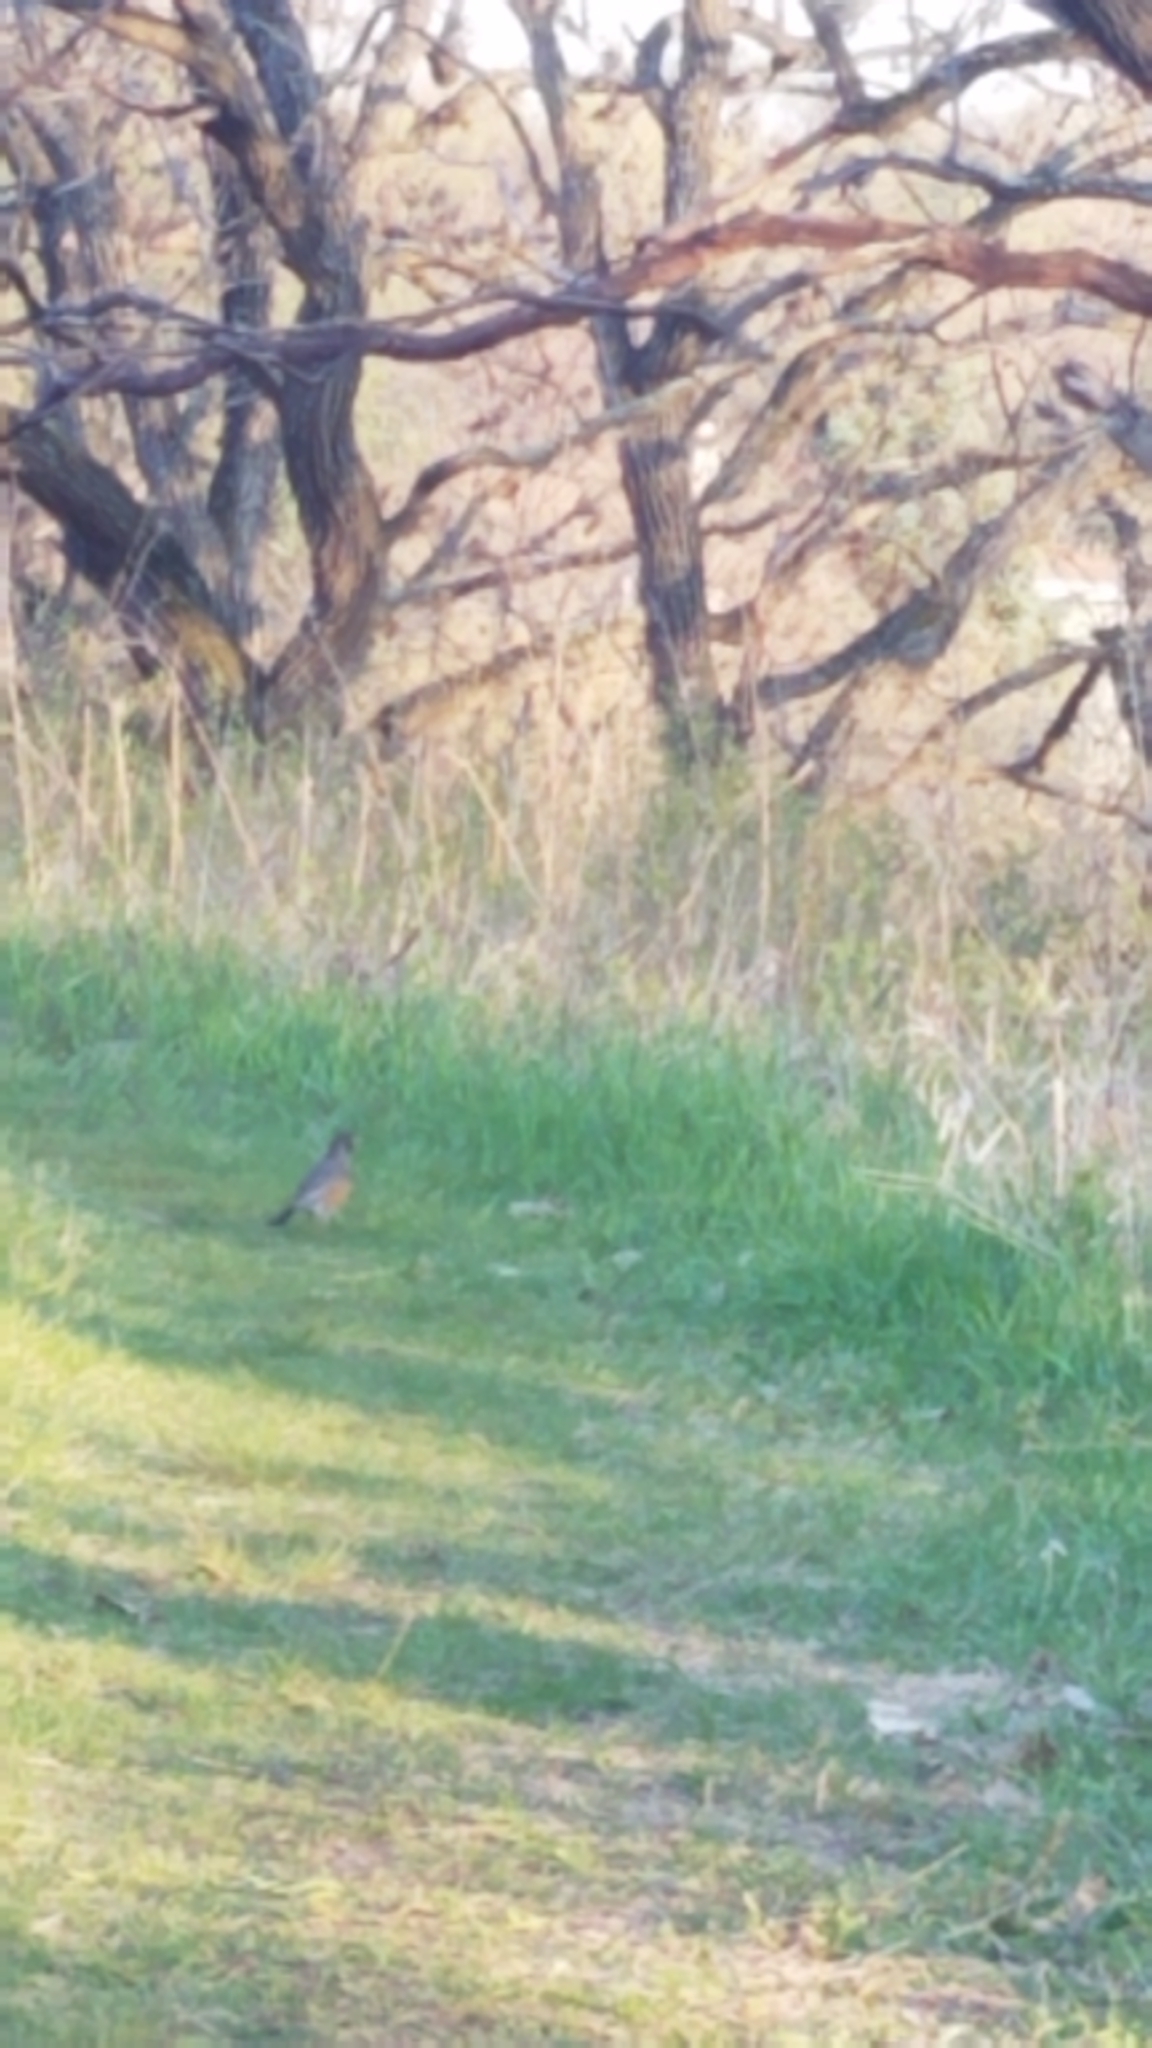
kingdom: Animalia
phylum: Chordata
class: Aves
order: Passeriformes
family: Turdidae
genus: Turdus
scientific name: Turdus migratorius
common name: American robin
